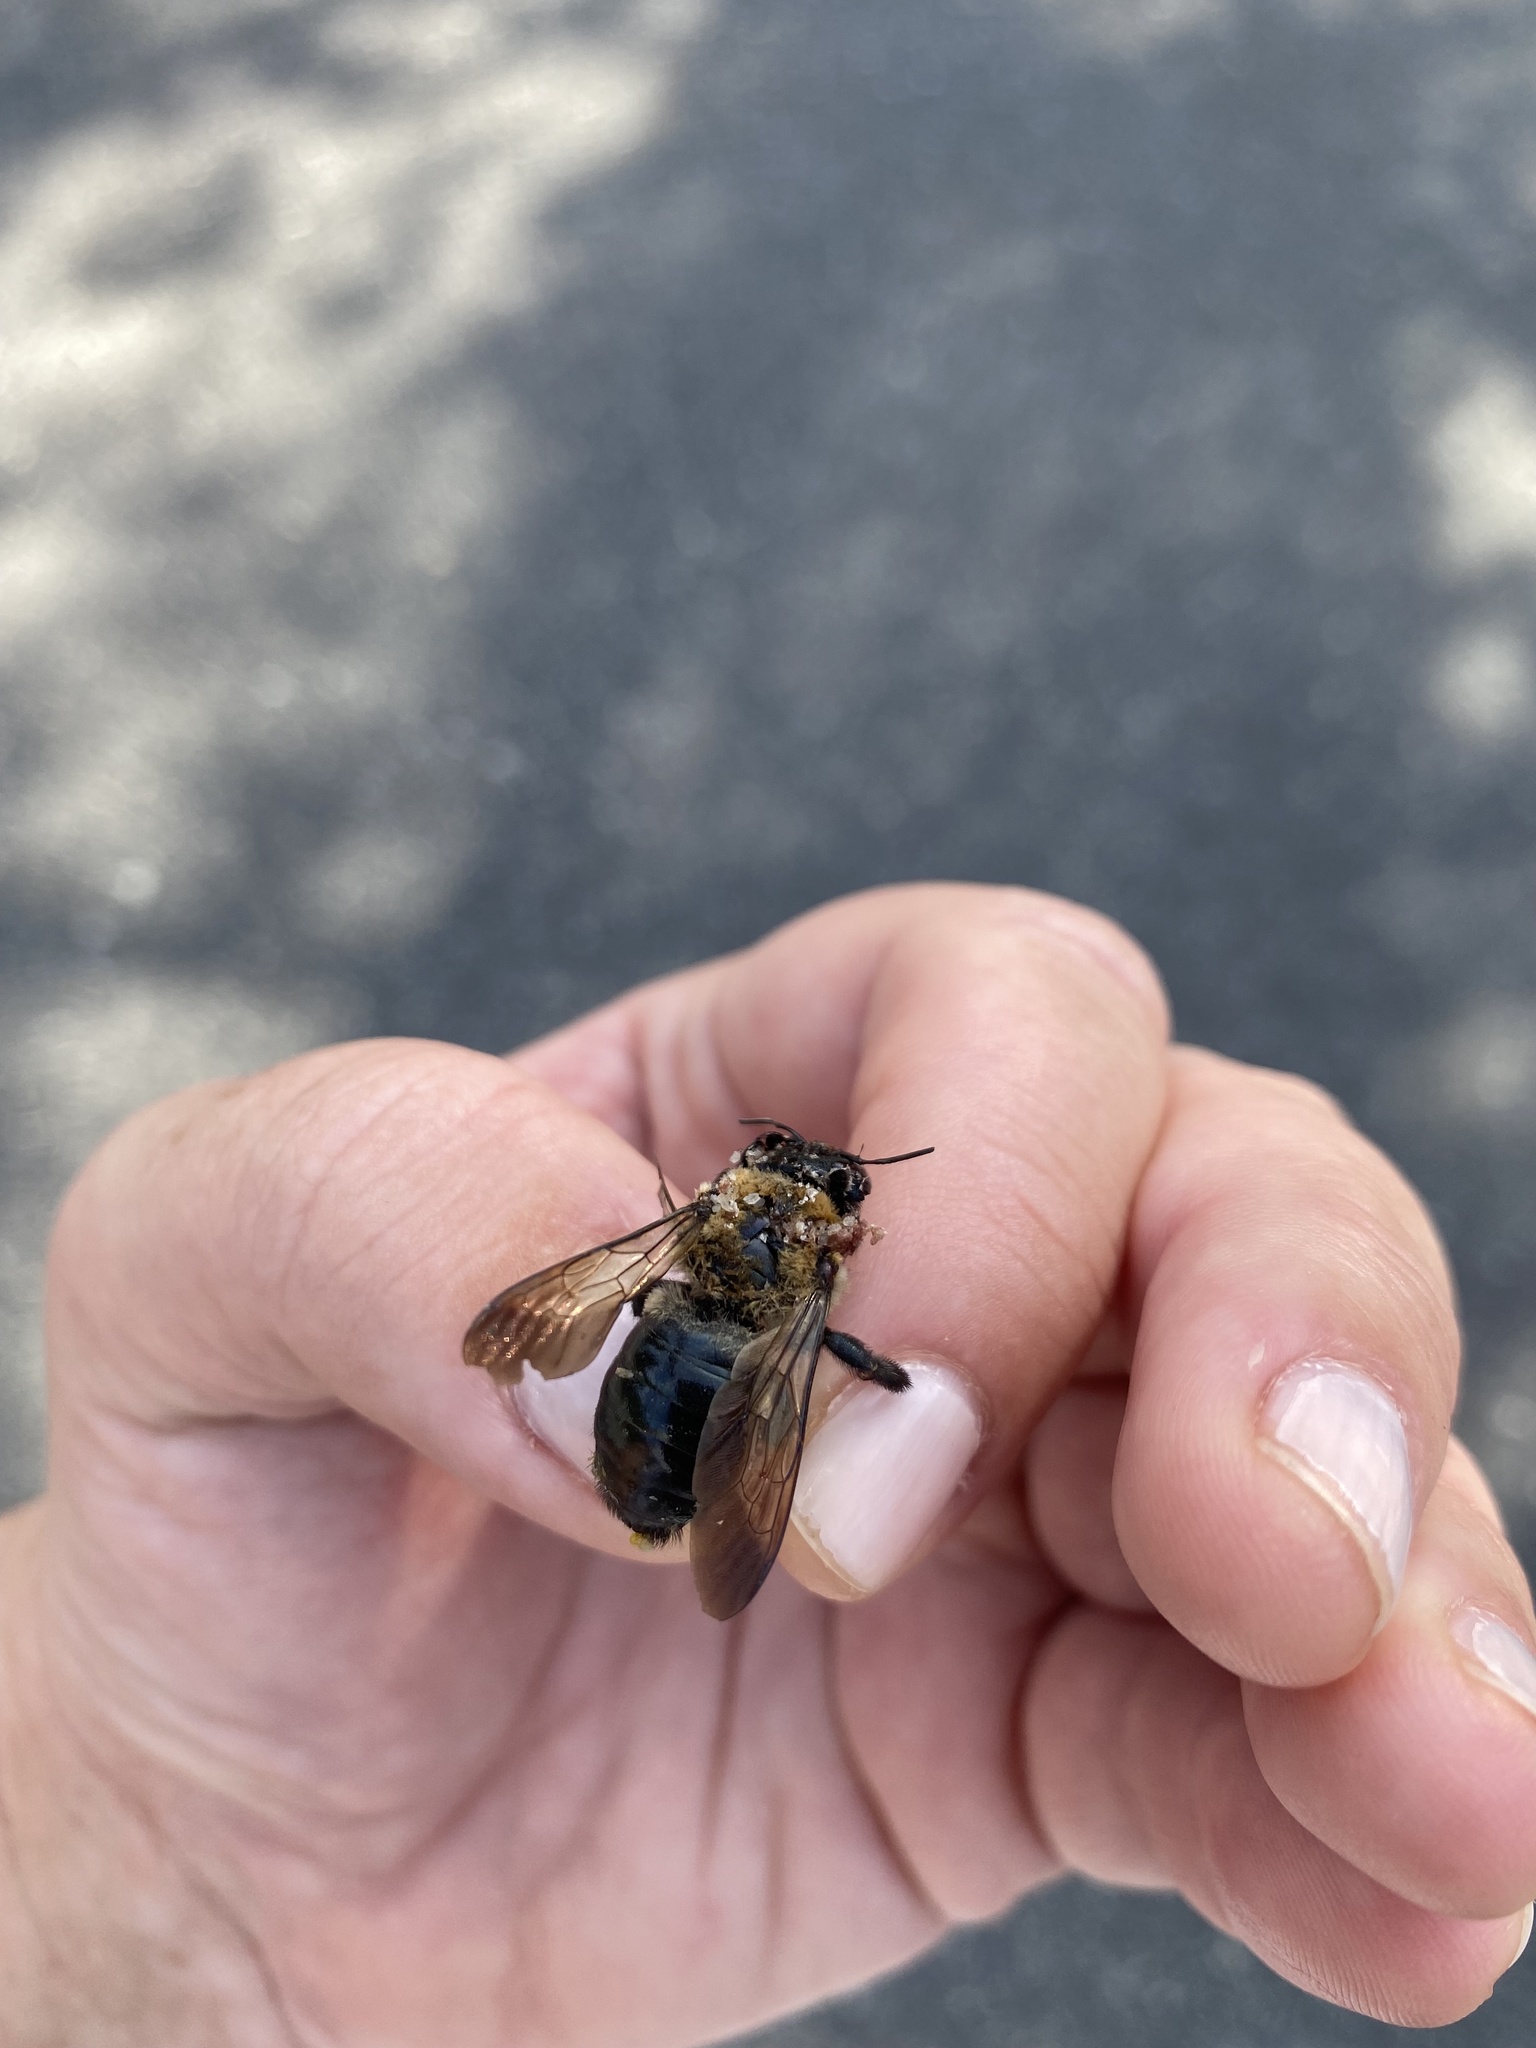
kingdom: Animalia
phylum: Arthropoda
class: Insecta
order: Hymenoptera
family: Apidae
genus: Xylocopa
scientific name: Xylocopa virginica
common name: Carpenter bee
